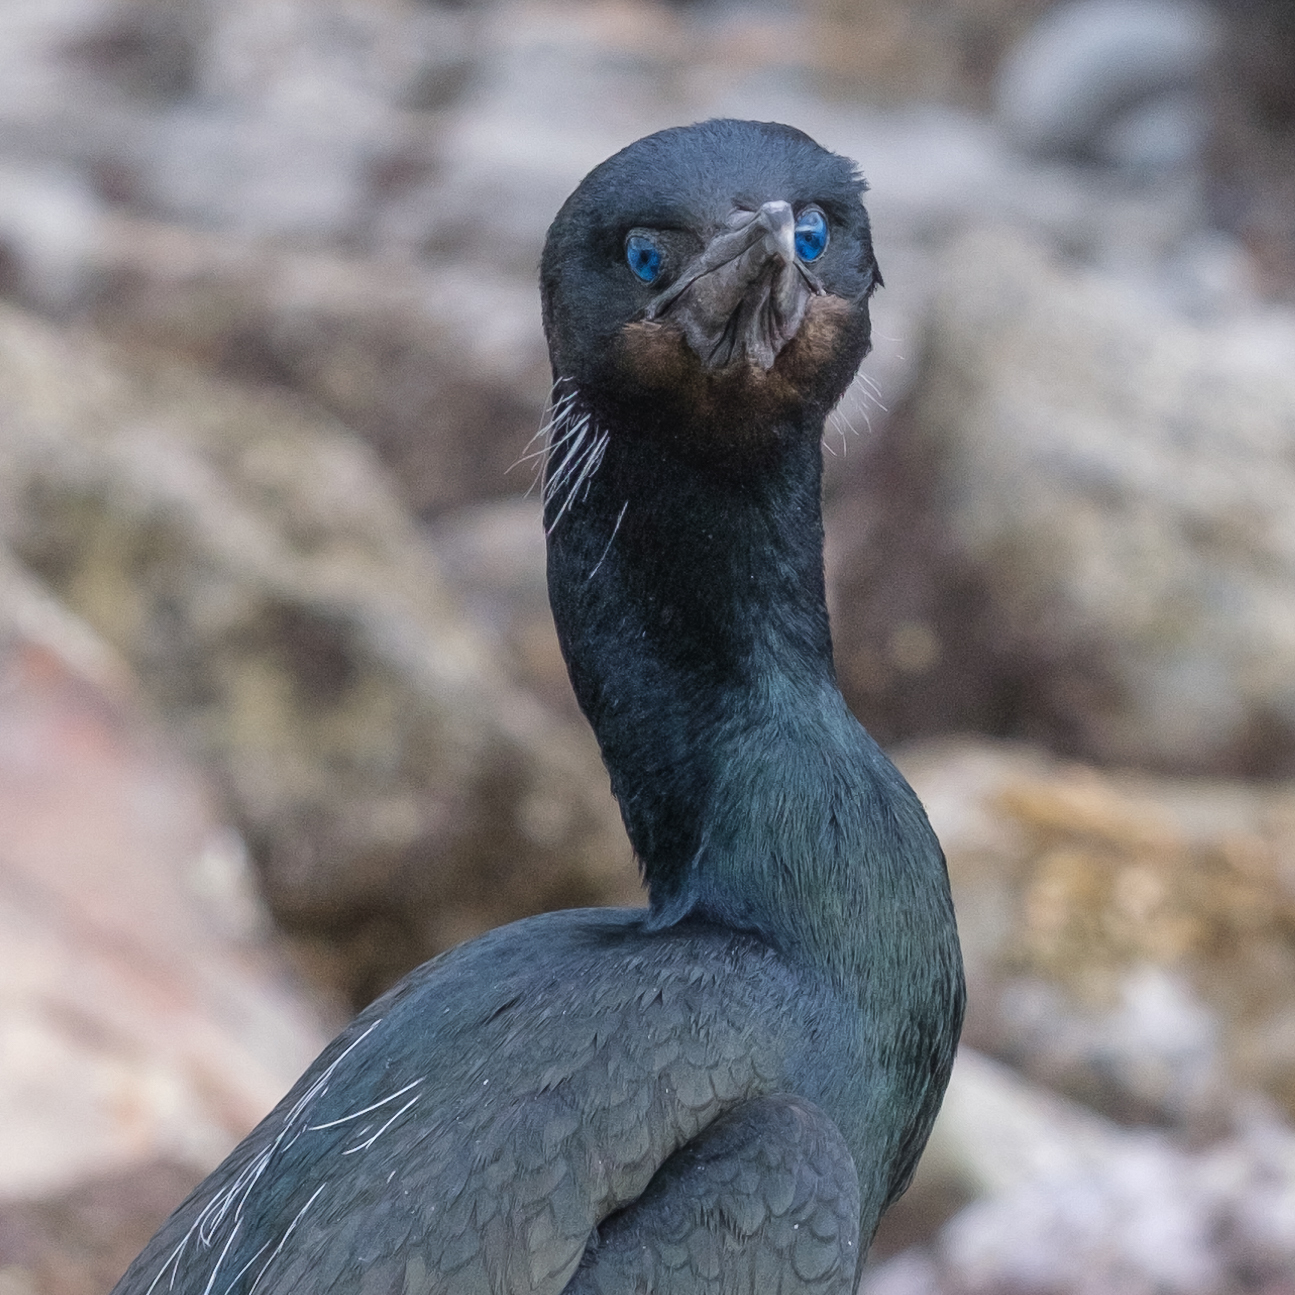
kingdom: Animalia
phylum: Chordata
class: Aves
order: Suliformes
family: Phalacrocoracidae
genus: Urile
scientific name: Urile penicillatus
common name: Brandt's cormorant
